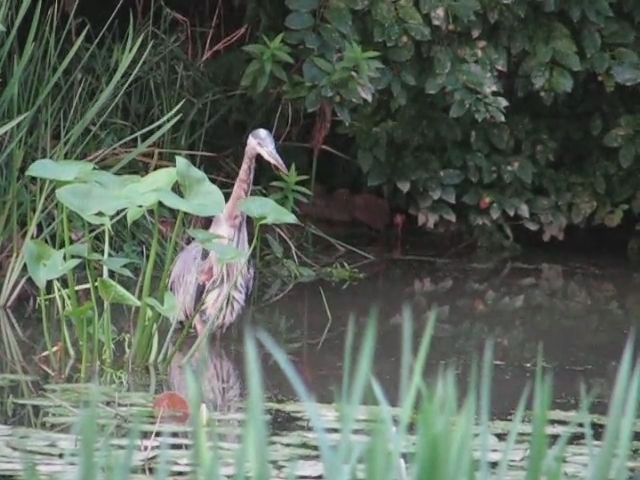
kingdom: Animalia
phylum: Chordata
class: Aves
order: Pelecaniformes
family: Ardeidae
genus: Ardea
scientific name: Ardea herodias
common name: Great blue heron
